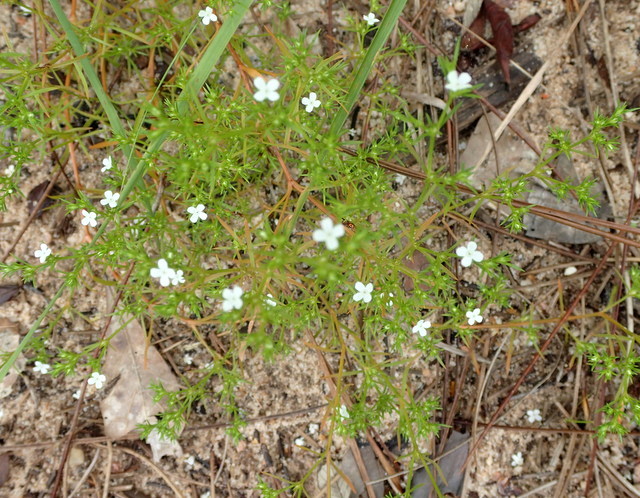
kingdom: Plantae
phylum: Tracheophyta
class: Magnoliopsida
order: Lamiales
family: Tetrachondraceae
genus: Polypremum
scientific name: Polypremum procumbens
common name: Juniper-leaf
